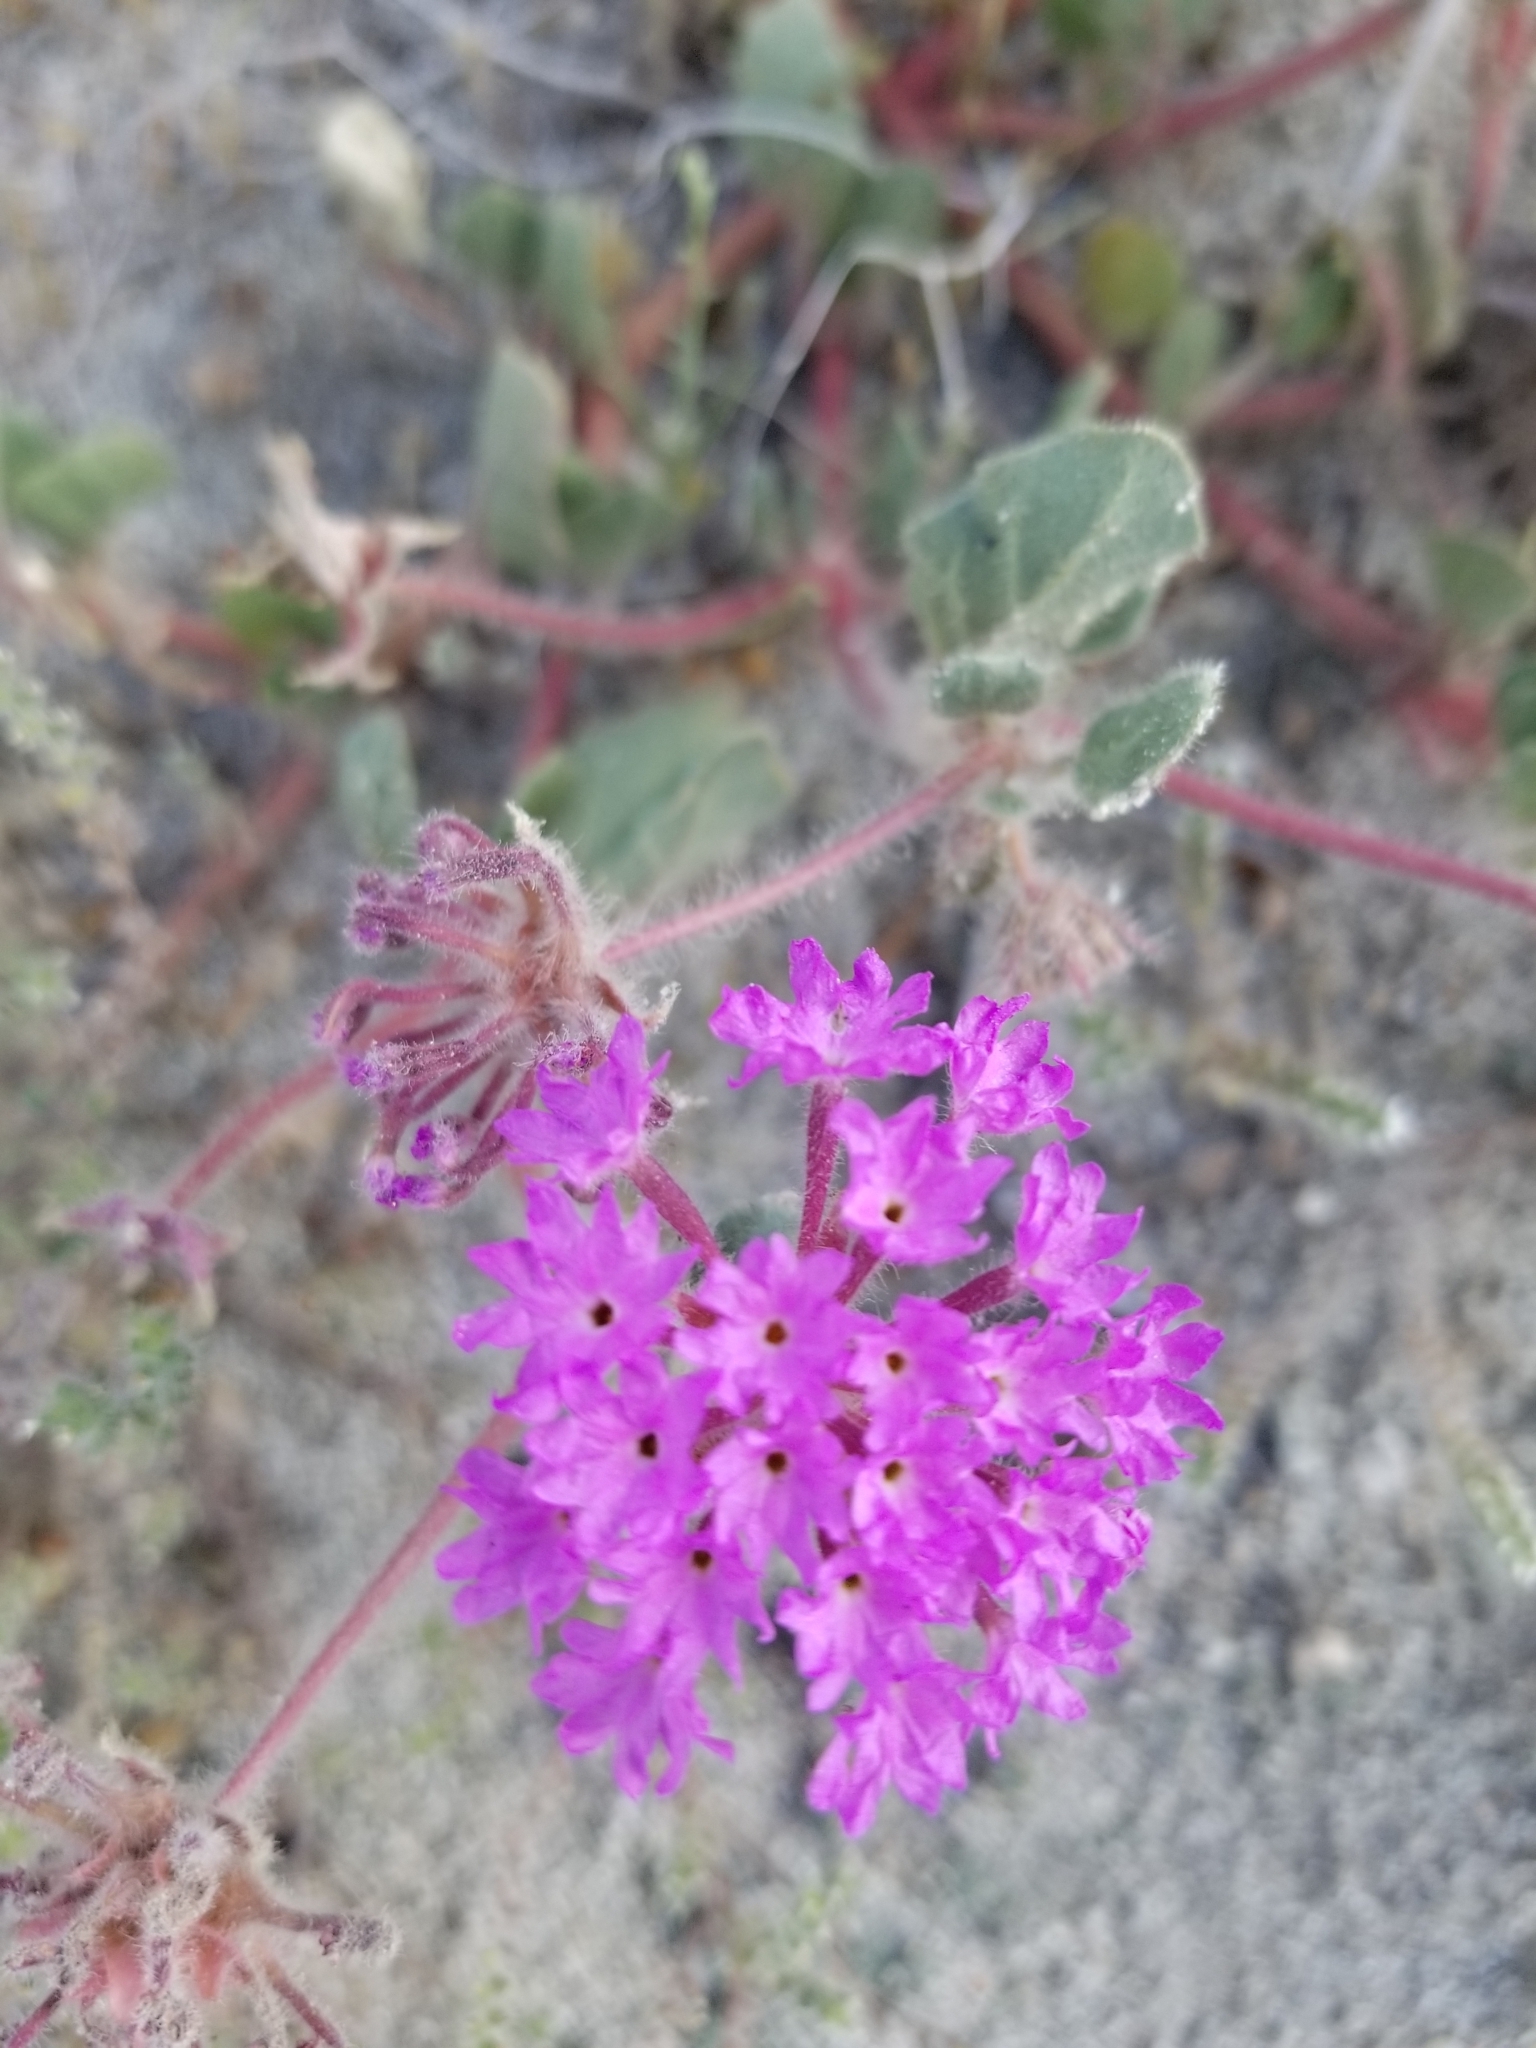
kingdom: Plantae
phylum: Tracheophyta
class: Magnoliopsida
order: Caryophyllales
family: Nyctaginaceae
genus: Abronia
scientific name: Abronia villosa
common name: Desert sand-verbena
